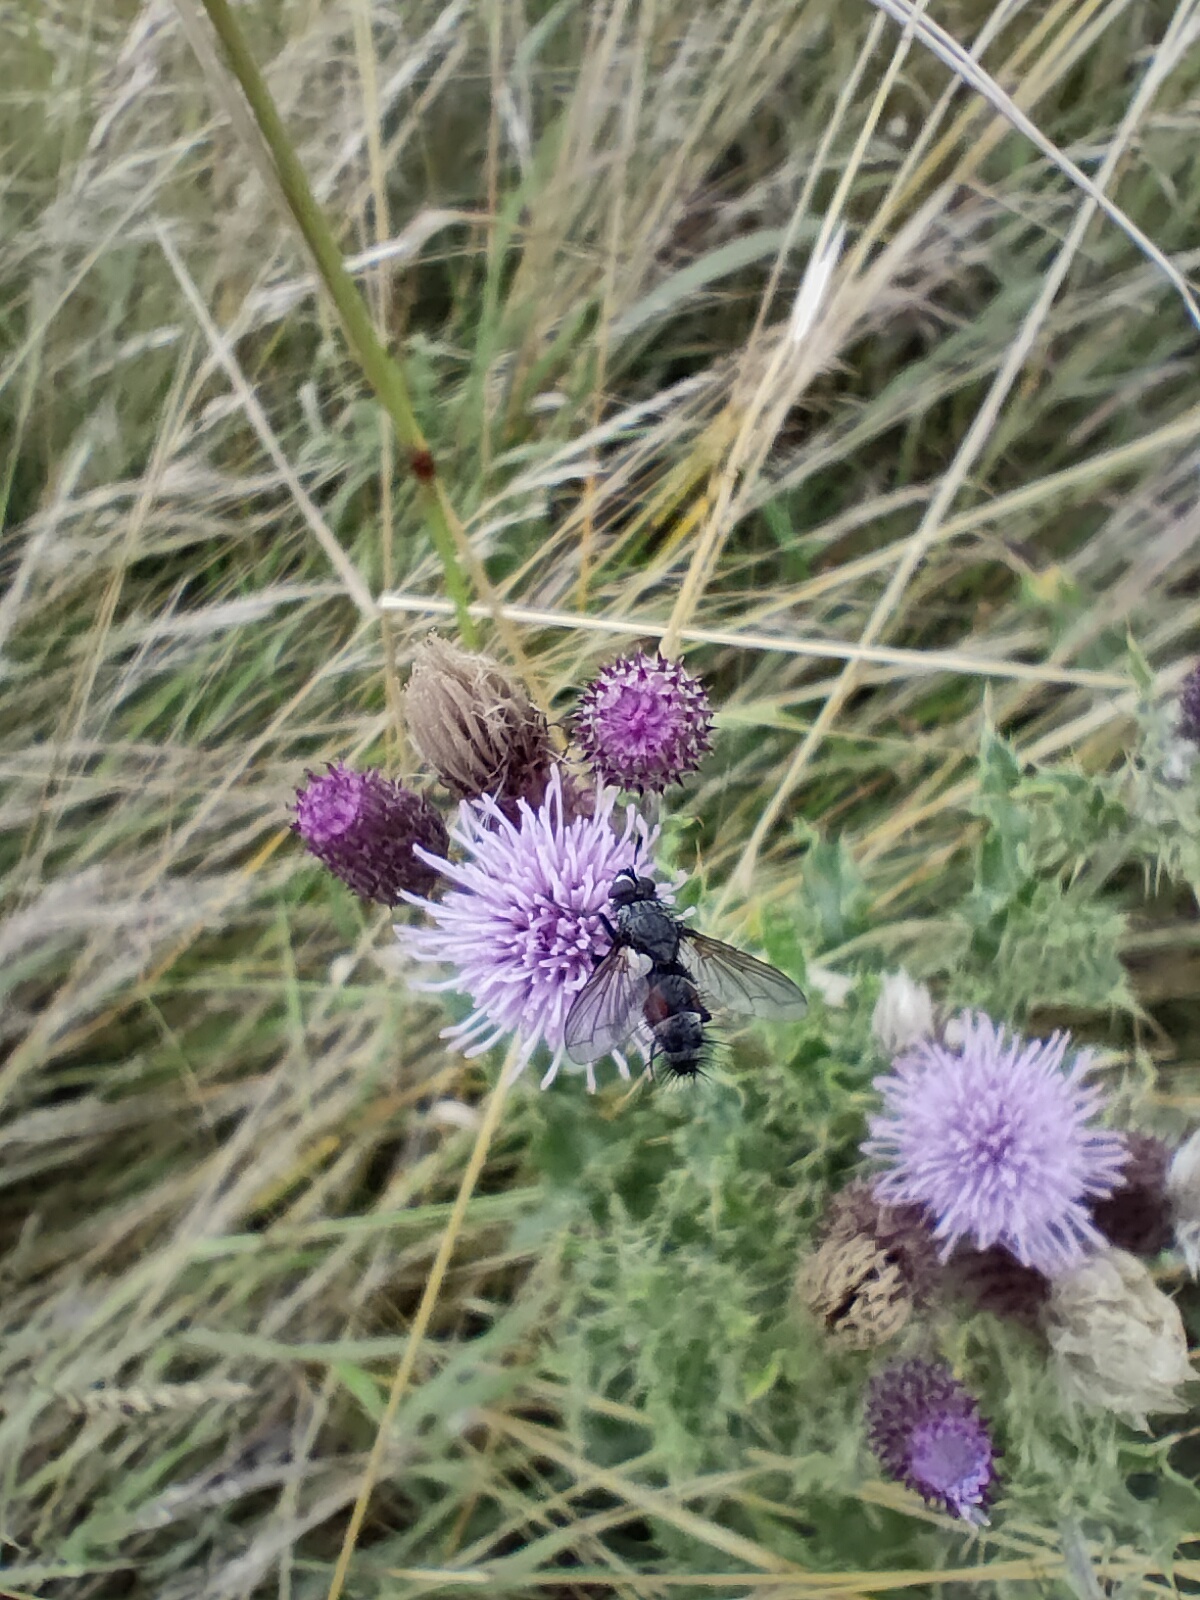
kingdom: Animalia
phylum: Arthropoda
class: Insecta
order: Diptera
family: Tachinidae
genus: Eriothrix
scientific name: Eriothrix rufomaculatus
